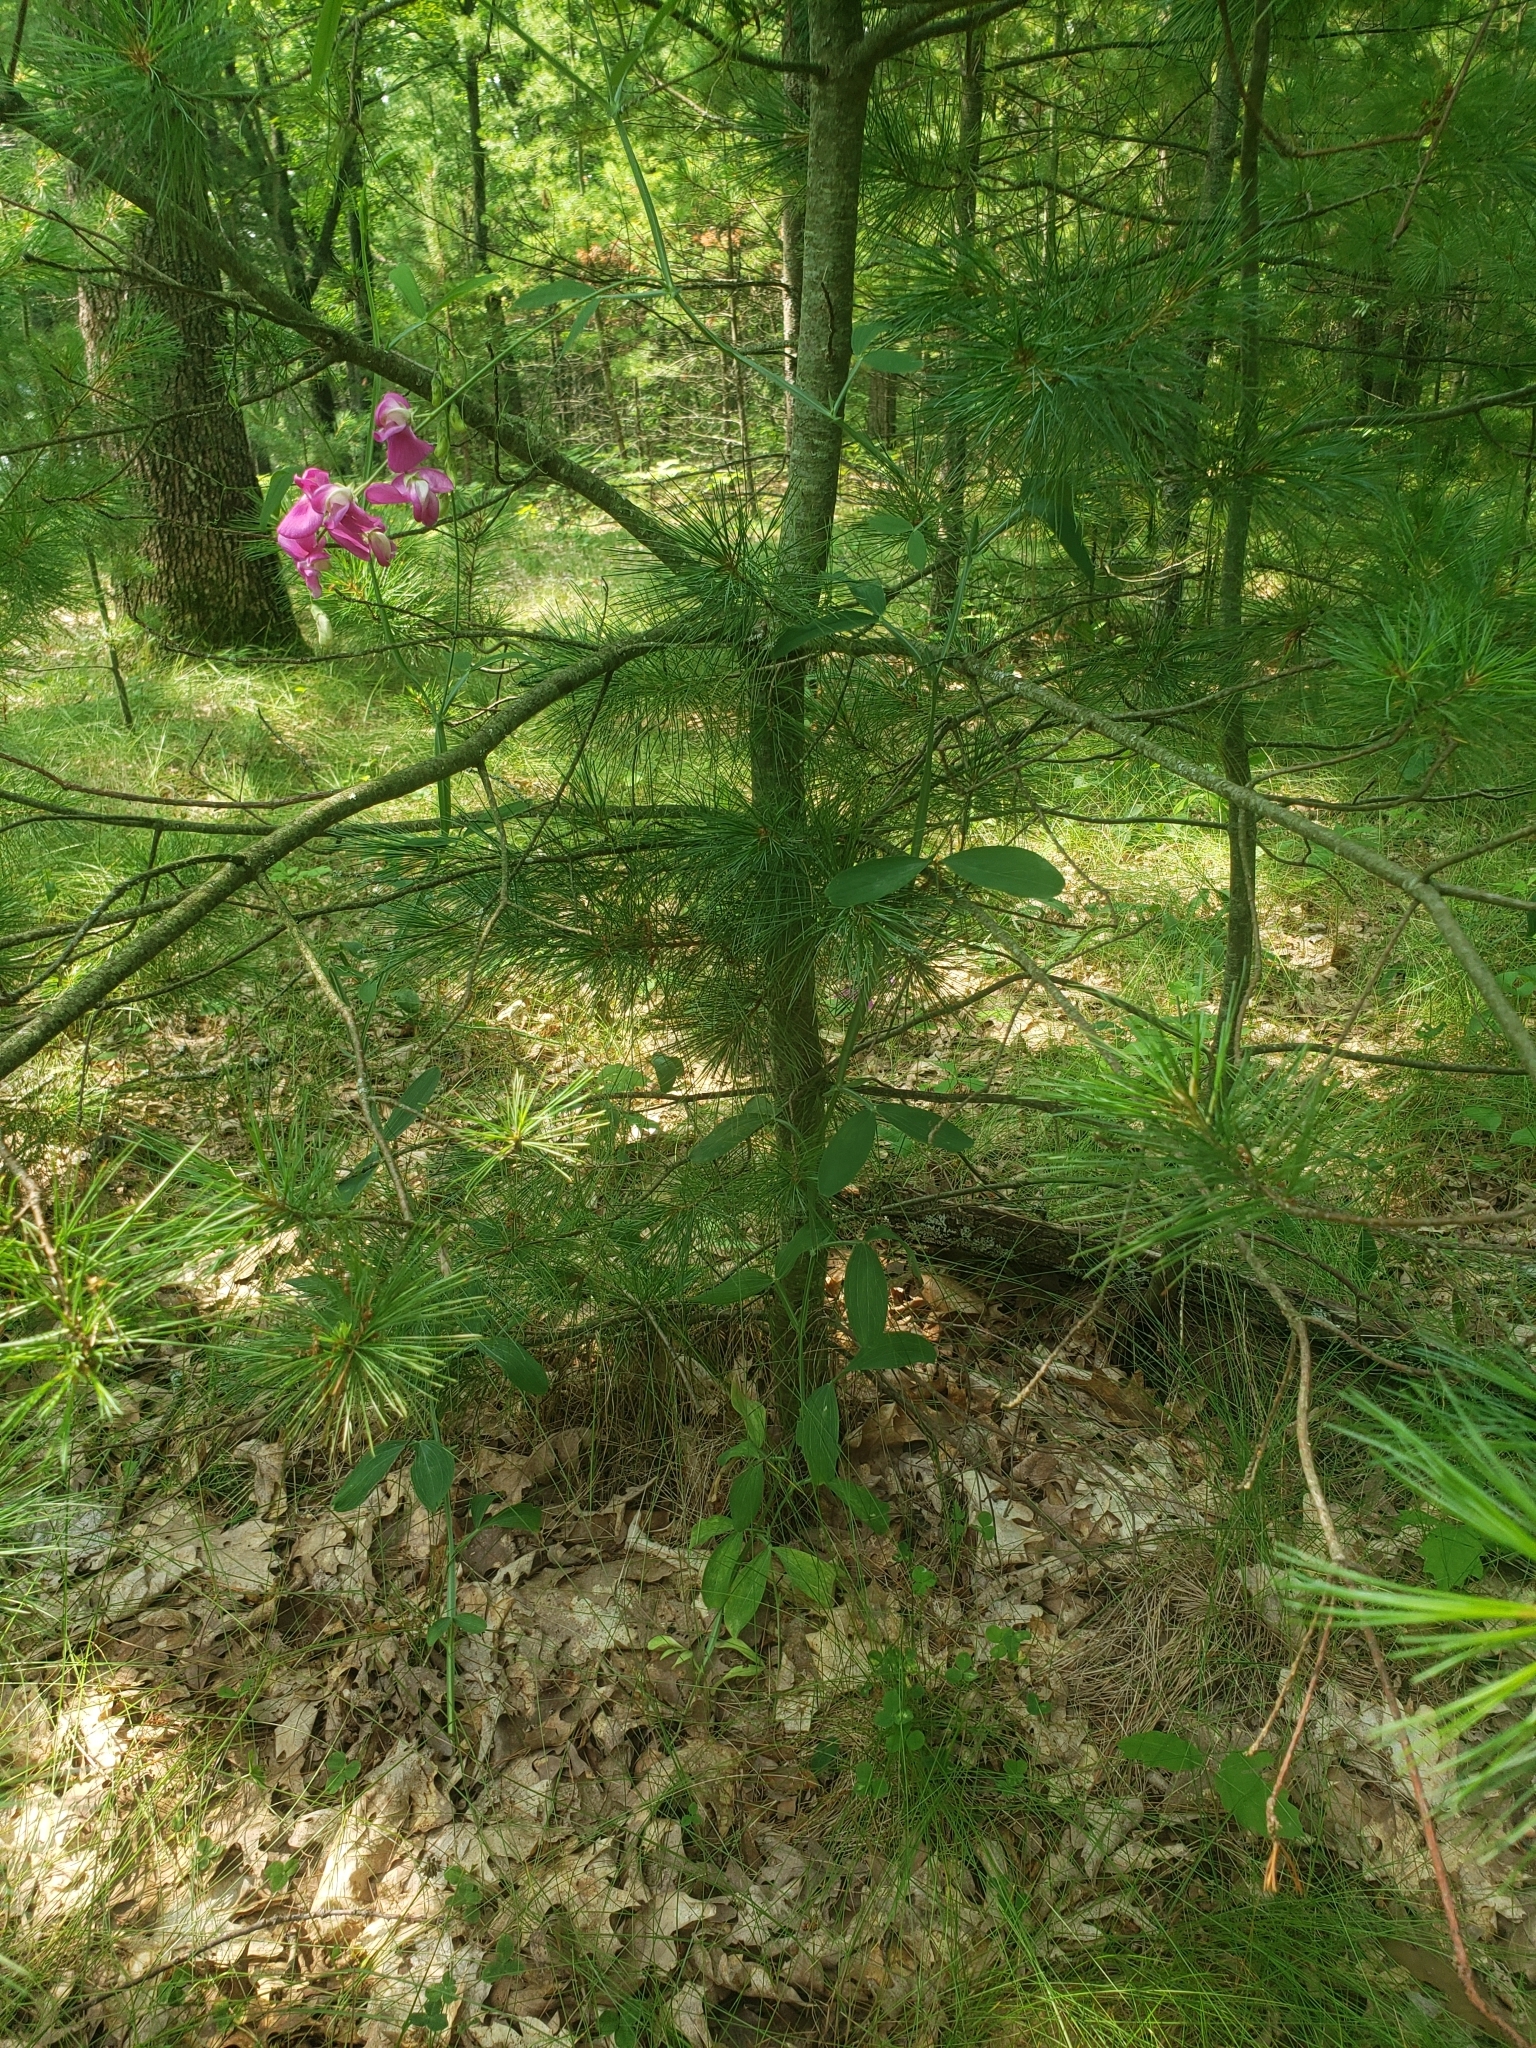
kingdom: Plantae
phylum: Tracheophyta
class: Magnoliopsida
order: Fabales
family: Fabaceae
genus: Lathyrus
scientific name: Lathyrus latifolius
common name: Perennial pea
